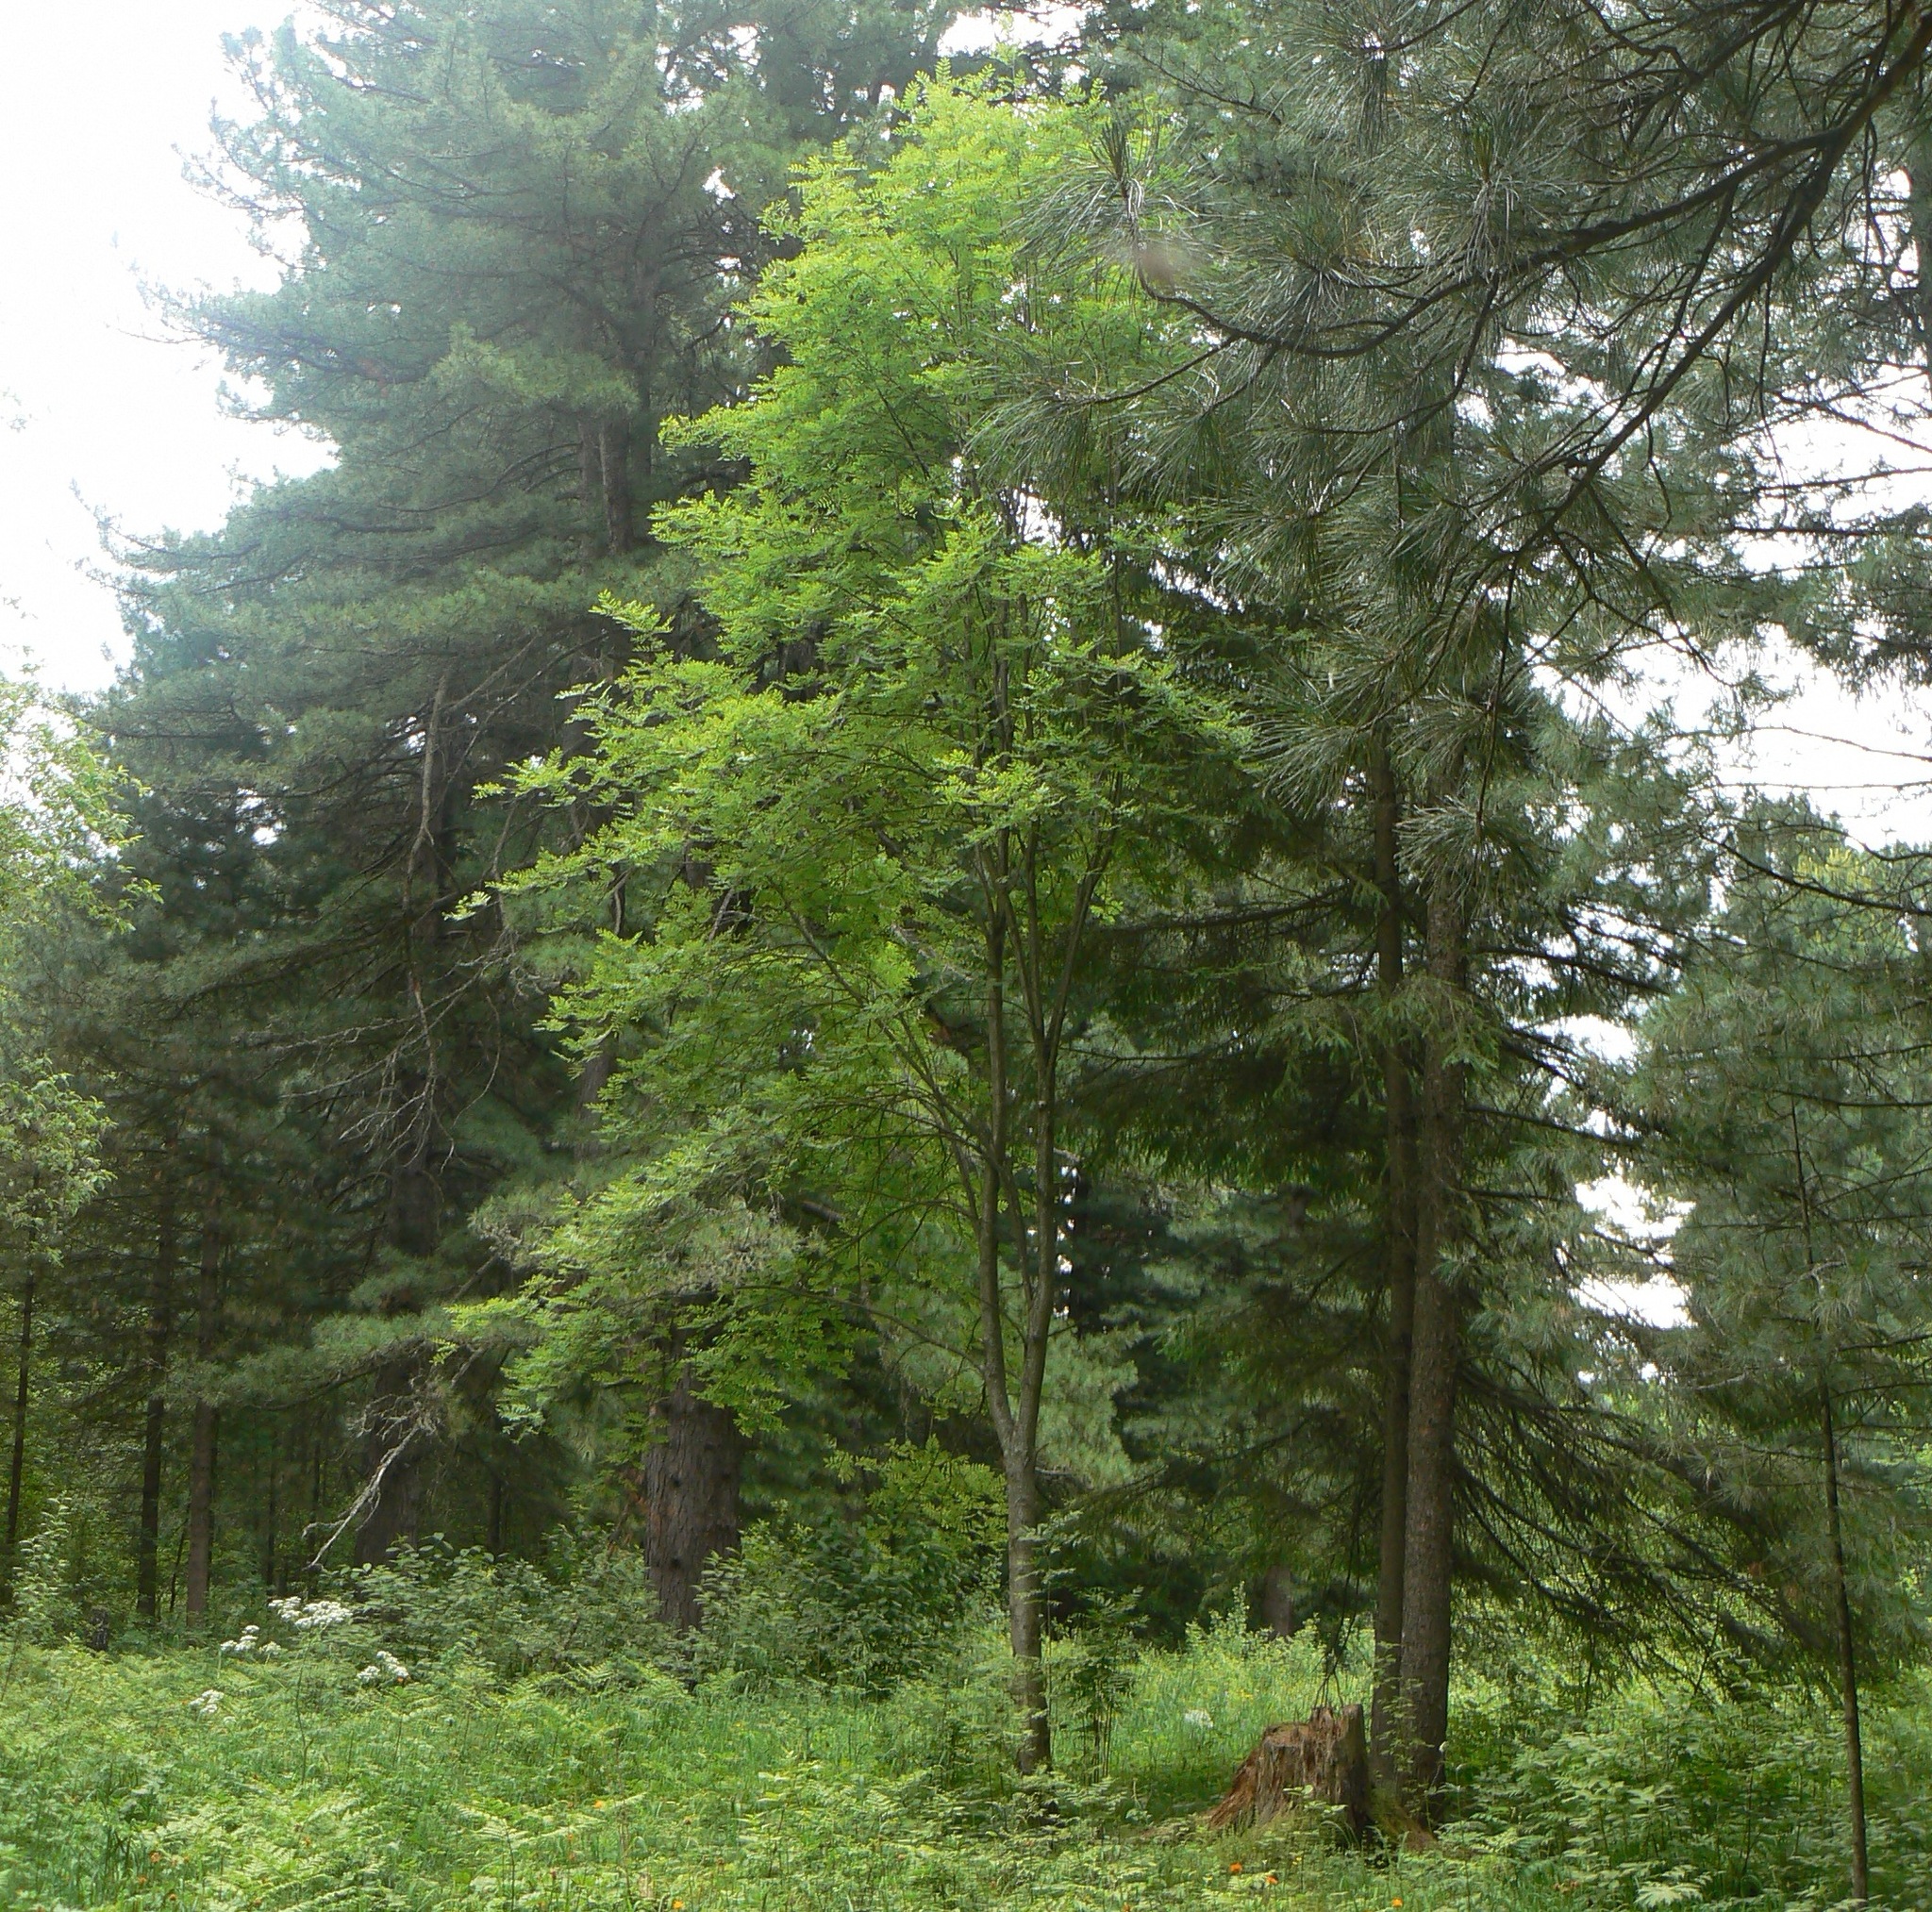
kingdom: Plantae
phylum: Tracheophyta
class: Magnoliopsida
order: Rosales
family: Rosaceae
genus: Sorbus
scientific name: Sorbus aucuparia
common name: Rowan
